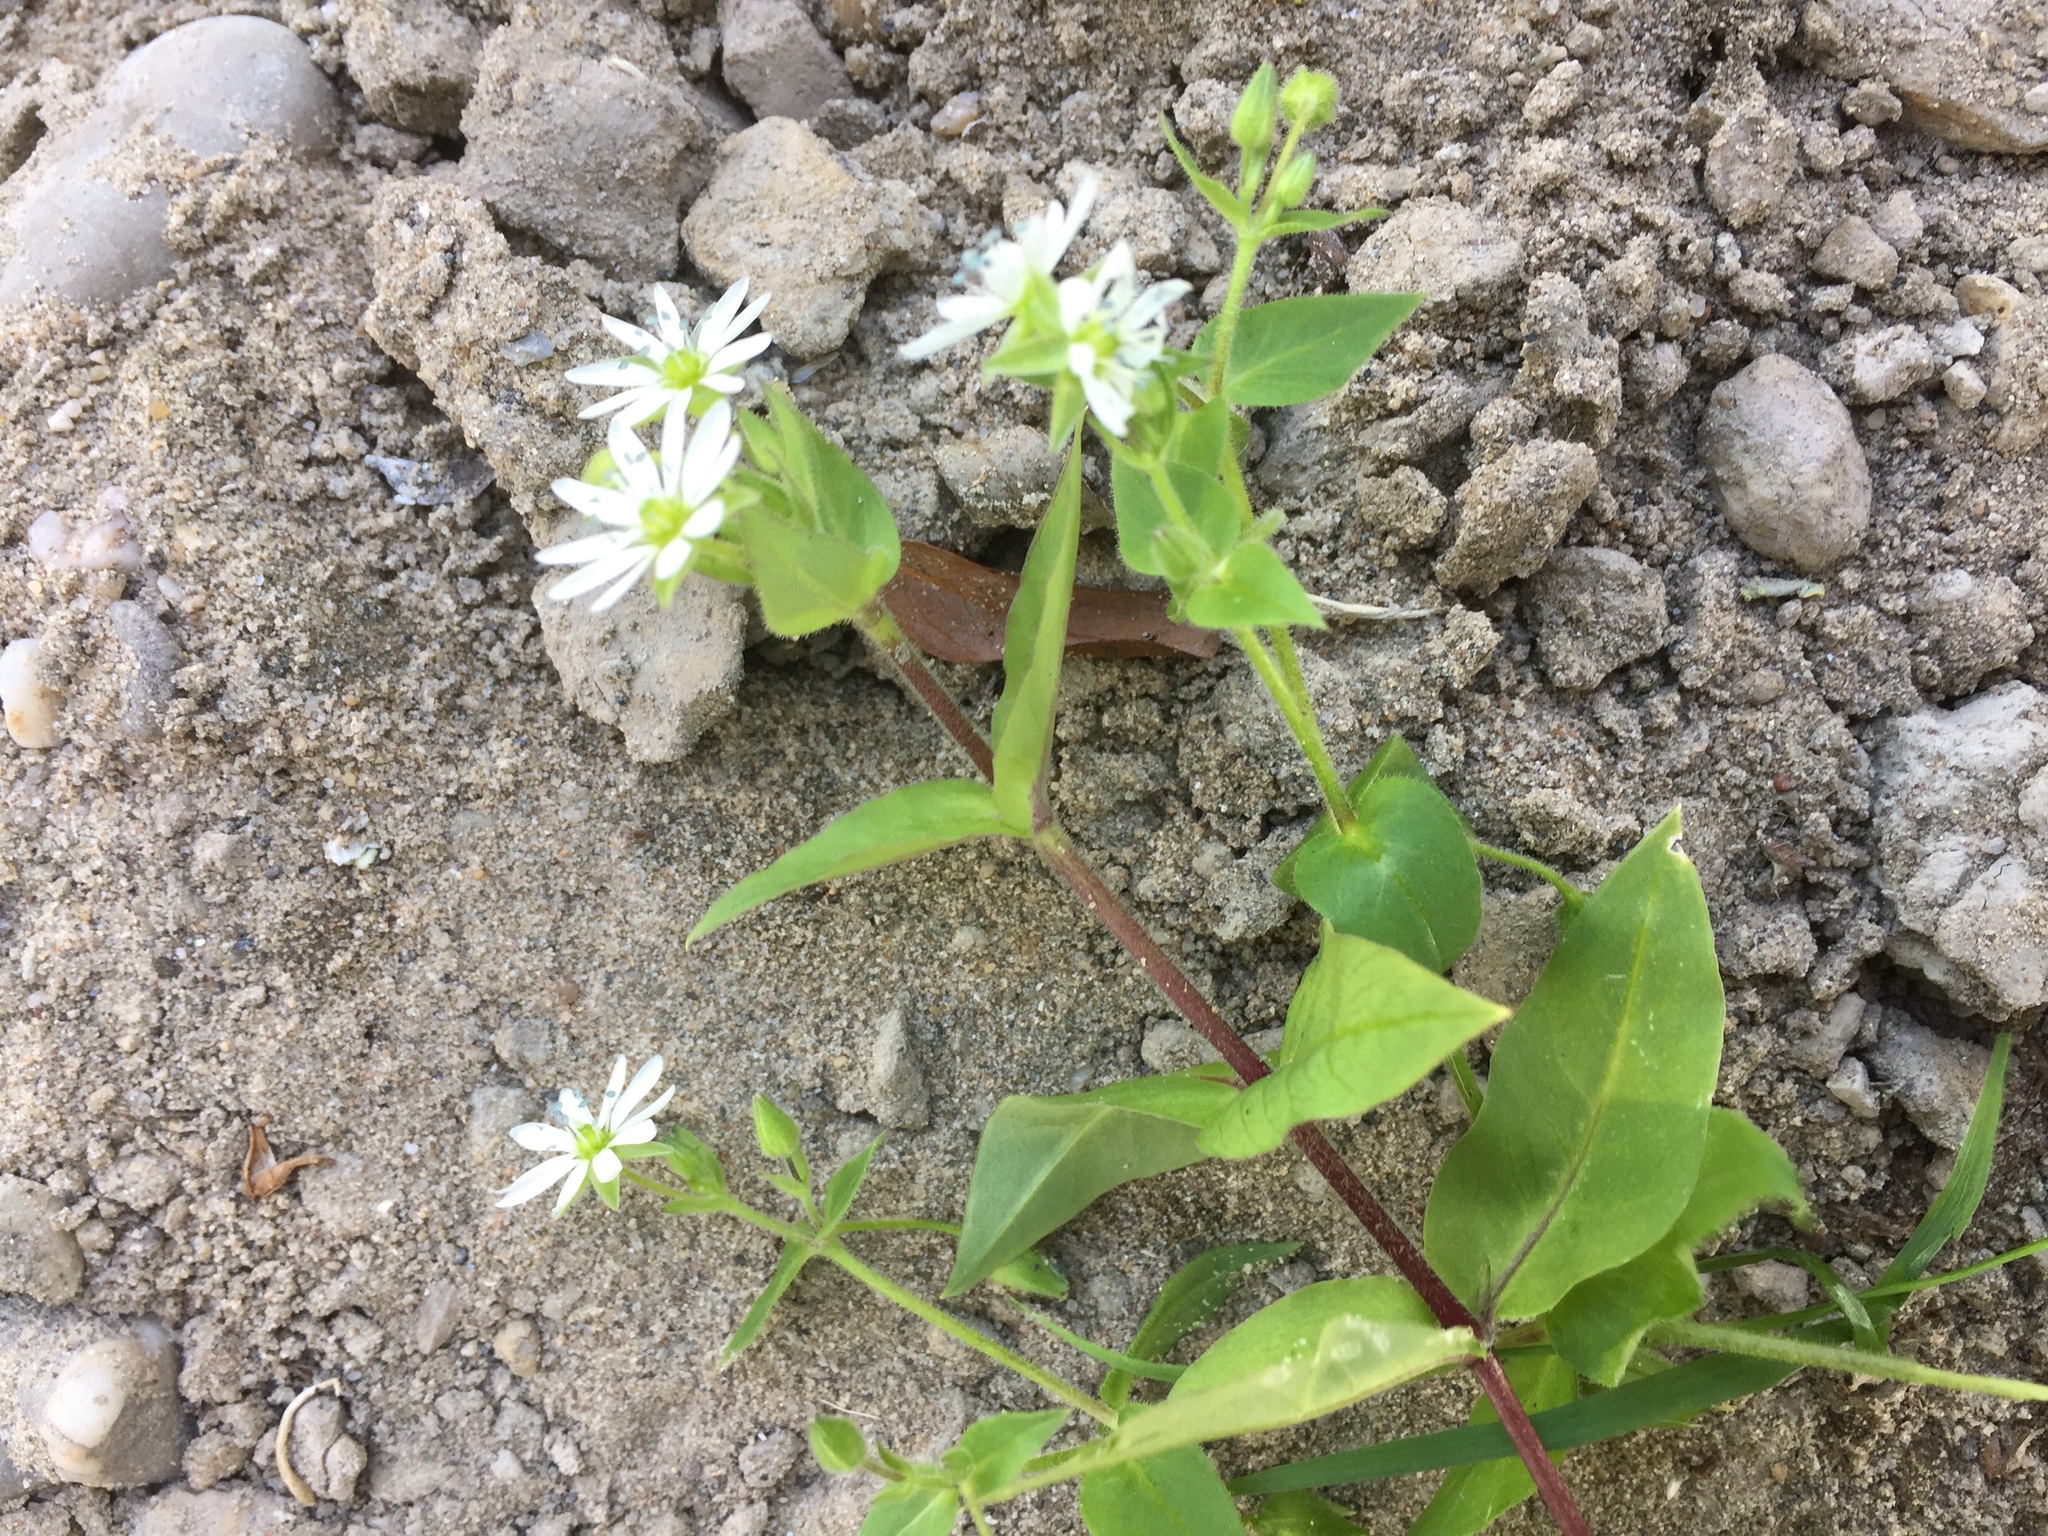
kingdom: Plantae
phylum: Tracheophyta
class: Magnoliopsida
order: Caryophyllales
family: Caryophyllaceae
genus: Stellaria
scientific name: Stellaria aquatica
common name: Water chickweed
